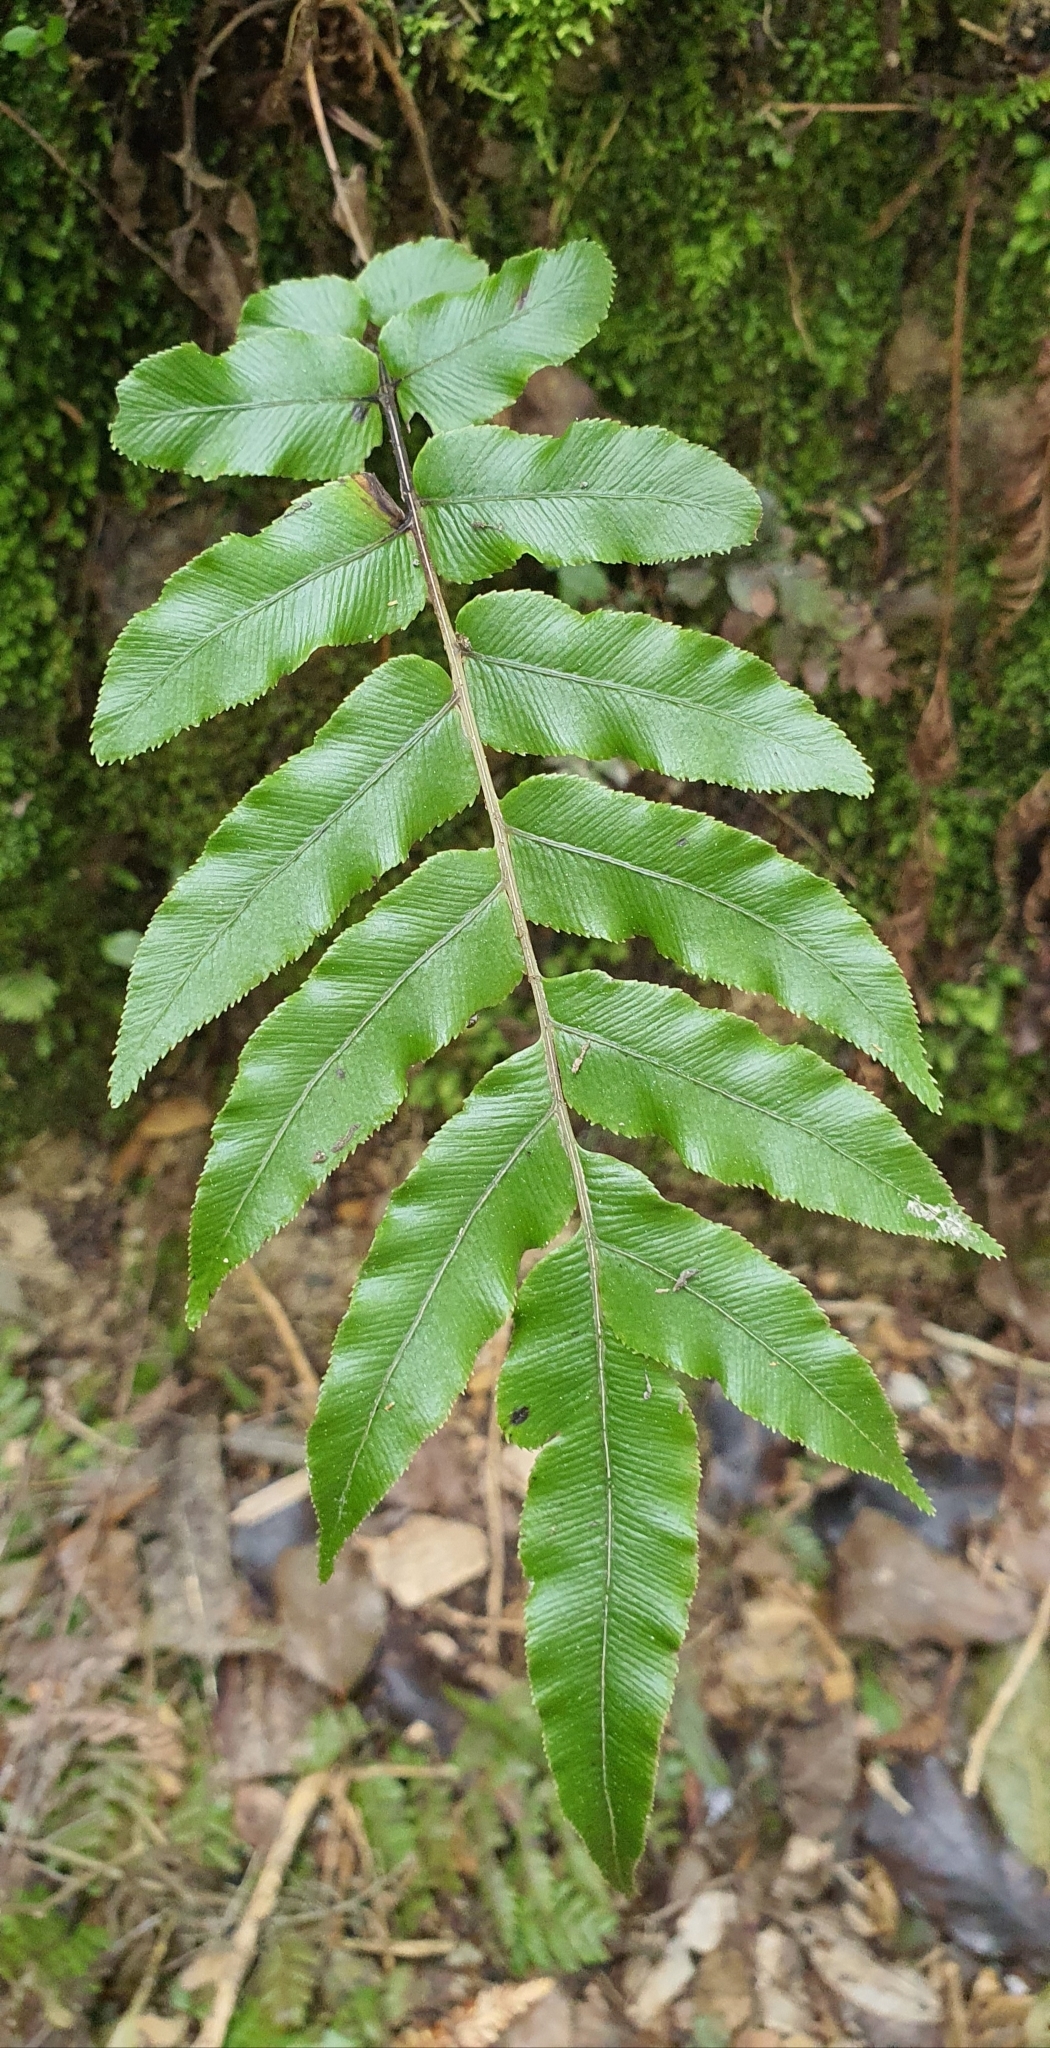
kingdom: Plantae
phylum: Tracheophyta
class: Polypodiopsida
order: Polypodiales
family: Blechnaceae
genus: Parablechnum
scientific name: Parablechnum procerum
